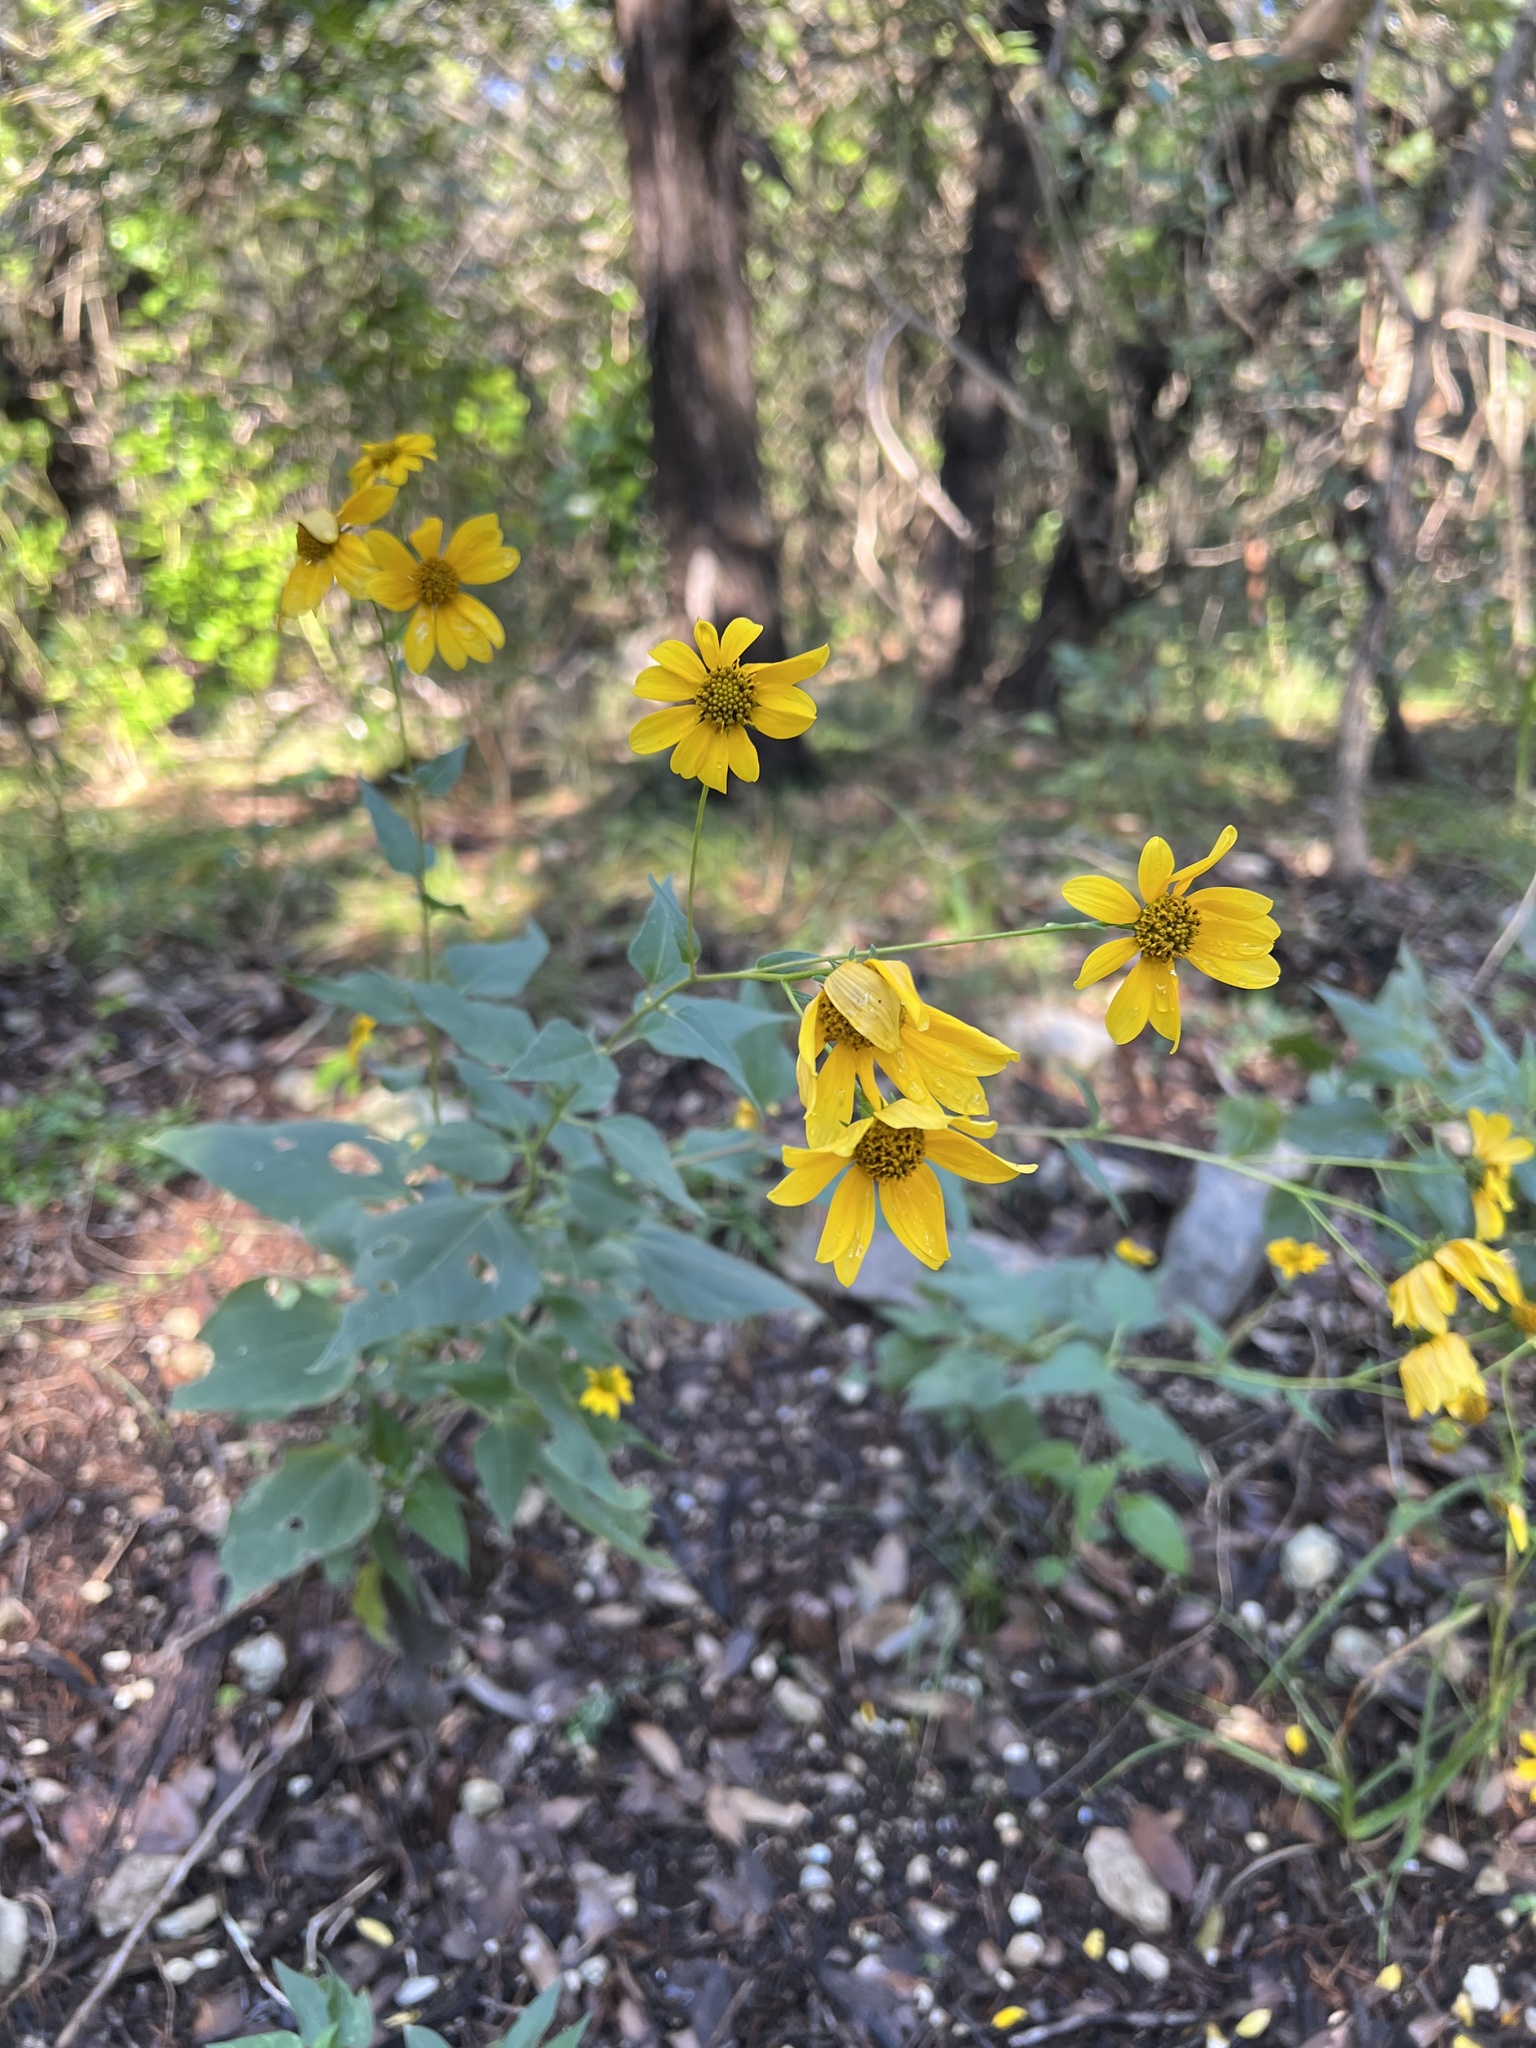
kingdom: Plantae
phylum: Tracheophyta
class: Magnoliopsida
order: Asterales
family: Asteraceae
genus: Viguiera
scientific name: Viguiera dentata
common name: Toothleaf
